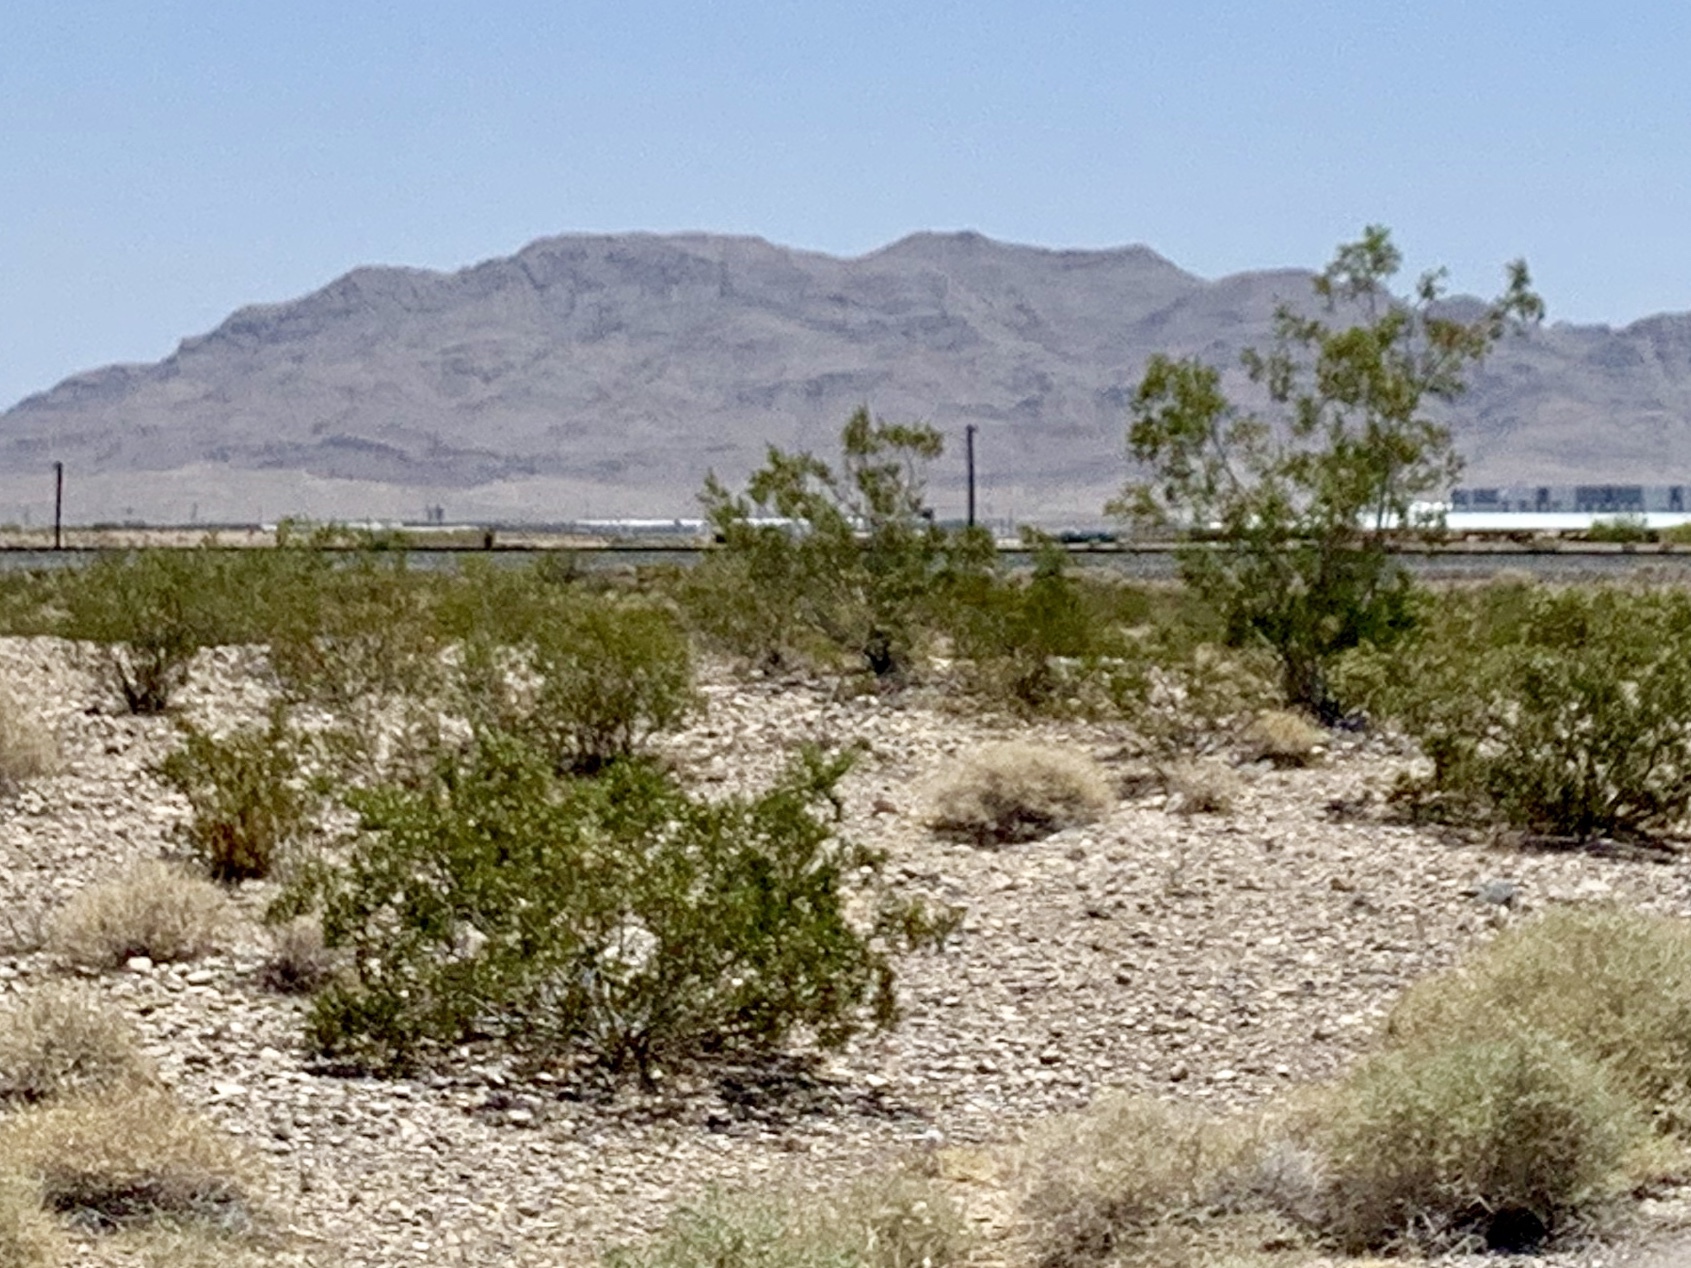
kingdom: Plantae
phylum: Tracheophyta
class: Magnoliopsida
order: Zygophyllales
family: Zygophyllaceae
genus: Larrea
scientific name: Larrea tridentata
